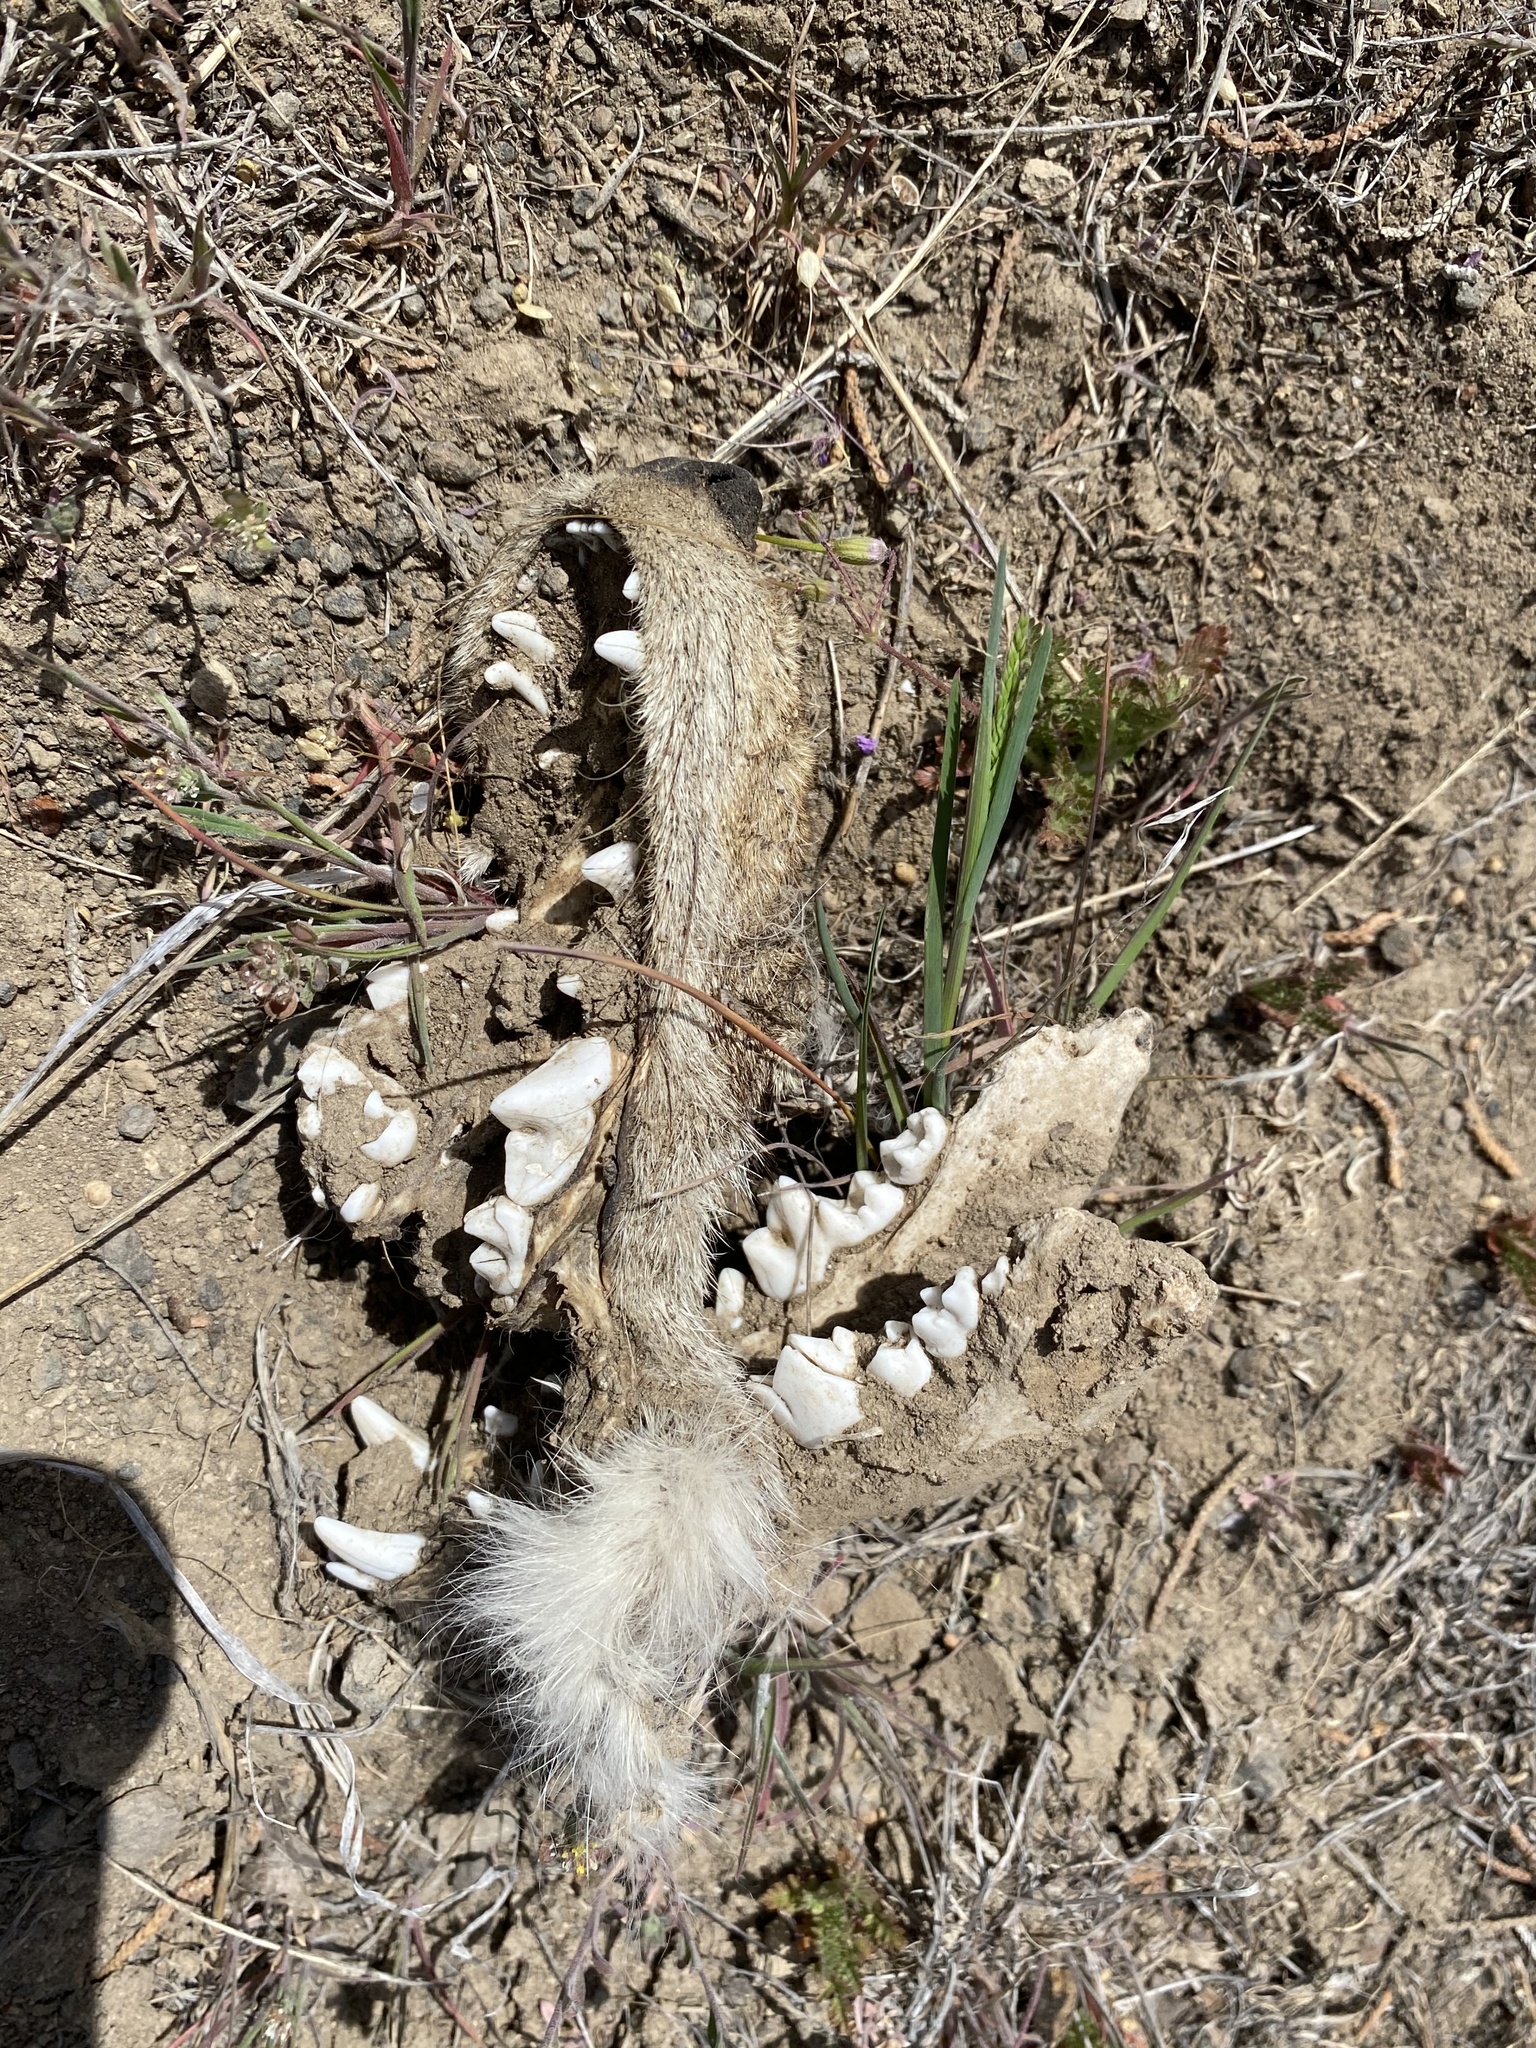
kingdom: Animalia
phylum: Chordata
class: Mammalia
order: Carnivora
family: Canidae
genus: Canis
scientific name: Canis latrans
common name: Coyote
